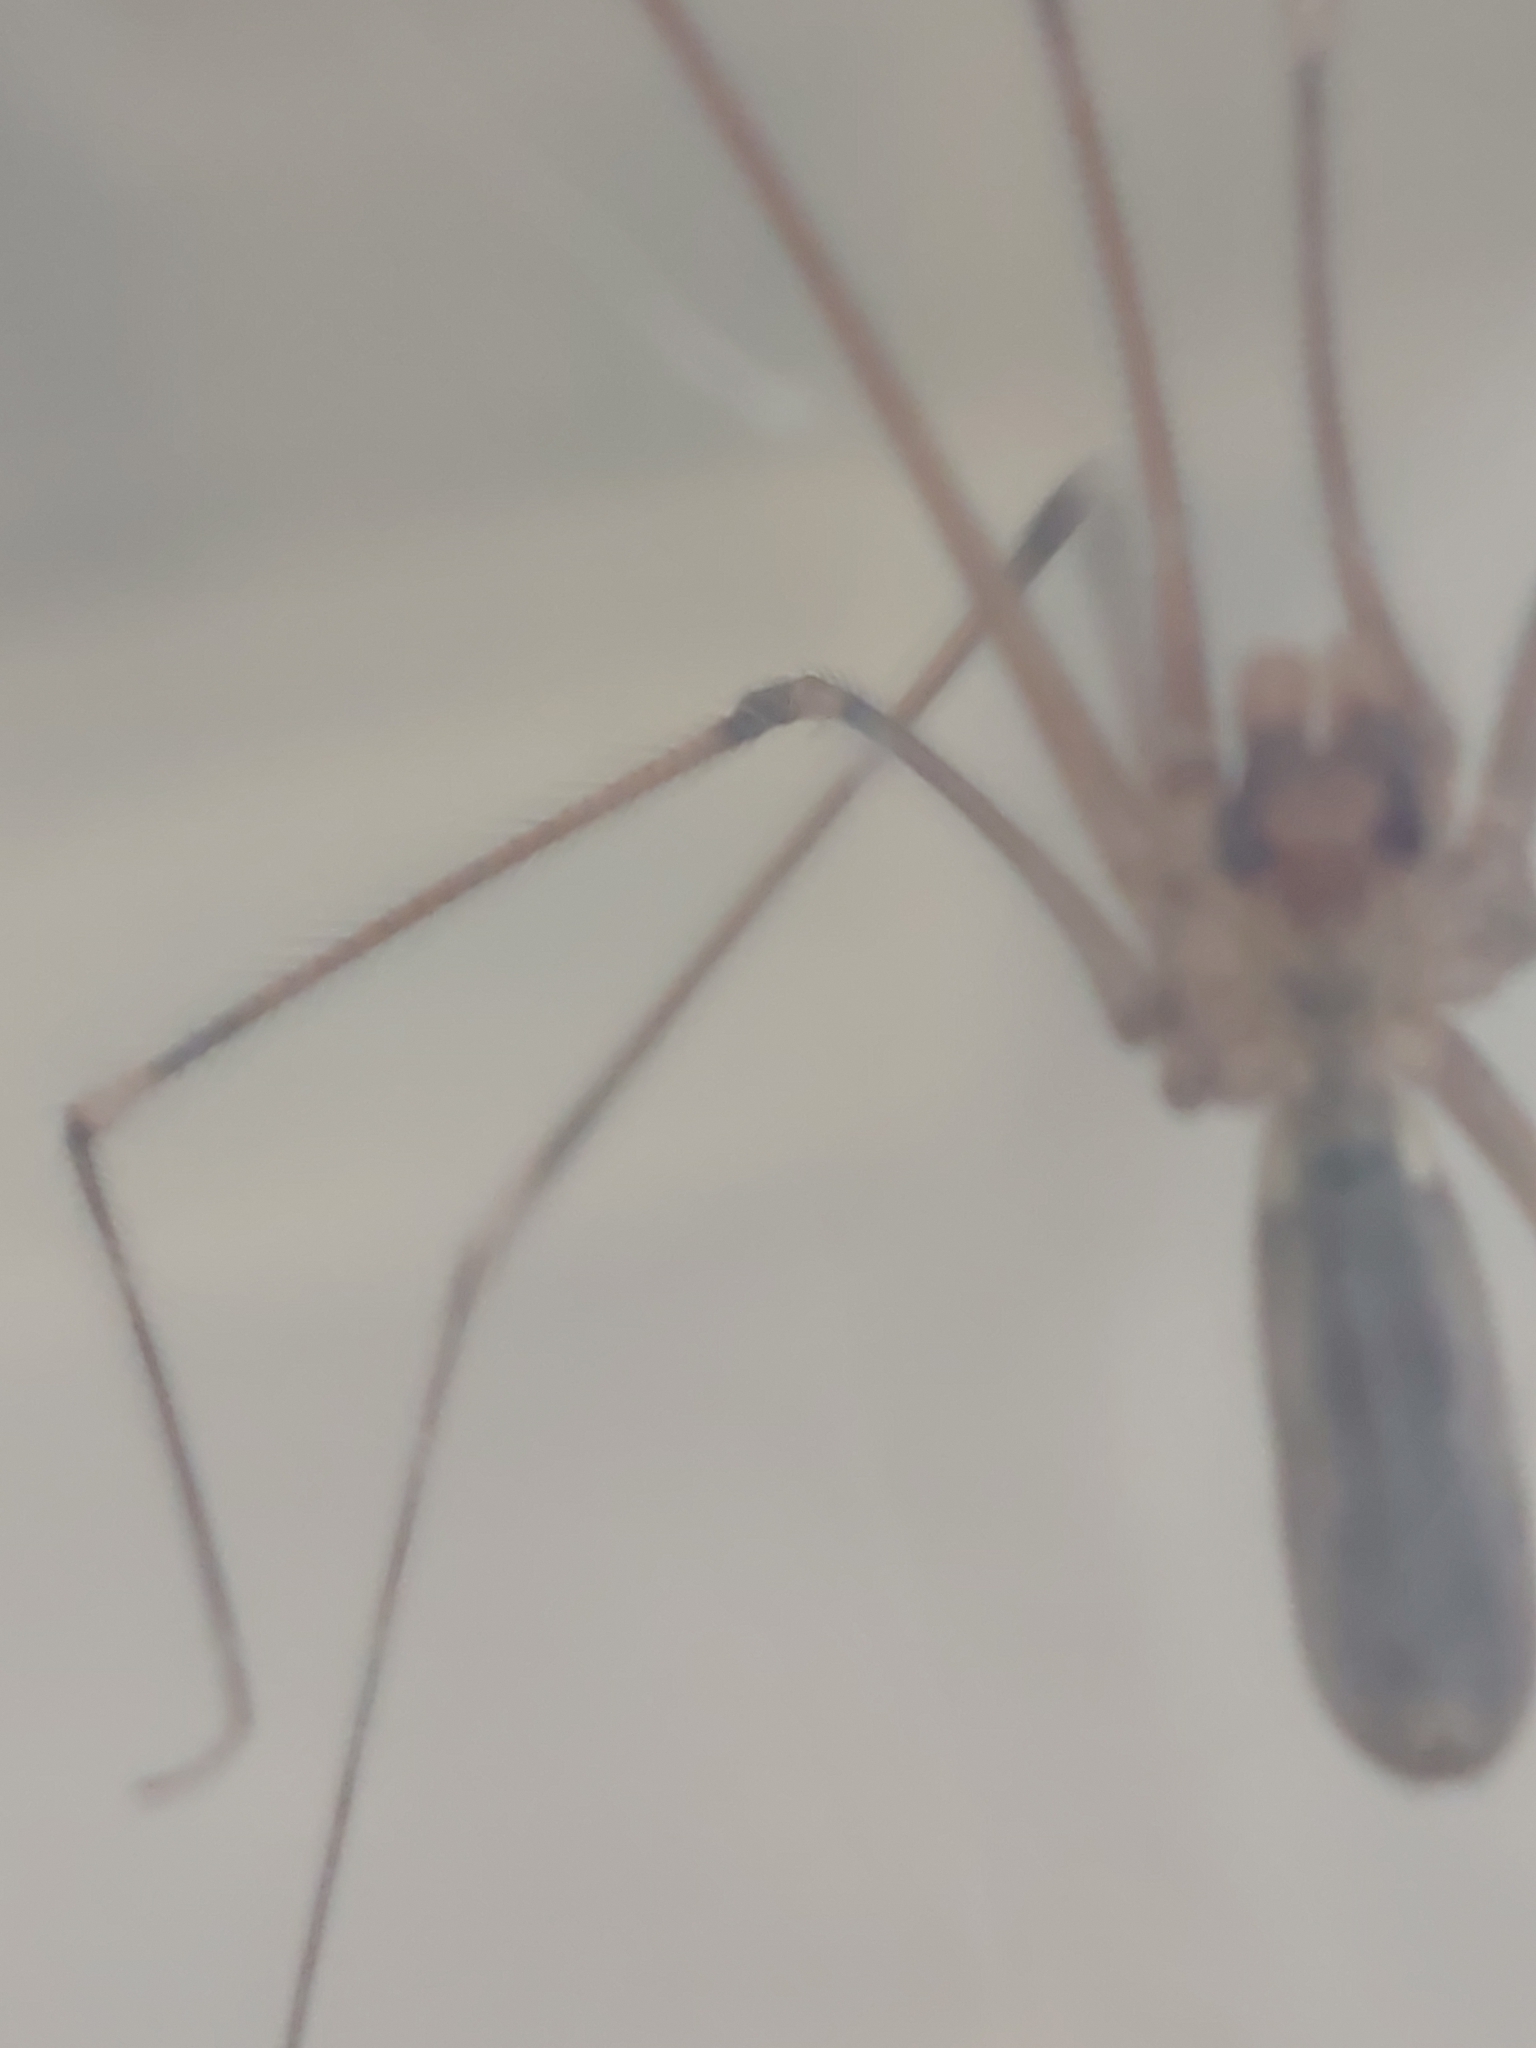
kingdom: Animalia
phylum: Arthropoda
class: Arachnida
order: Araneae
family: Pholcidae
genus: Pholcus
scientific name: Pholcus phalangioides
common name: Longbodied cellar spider
